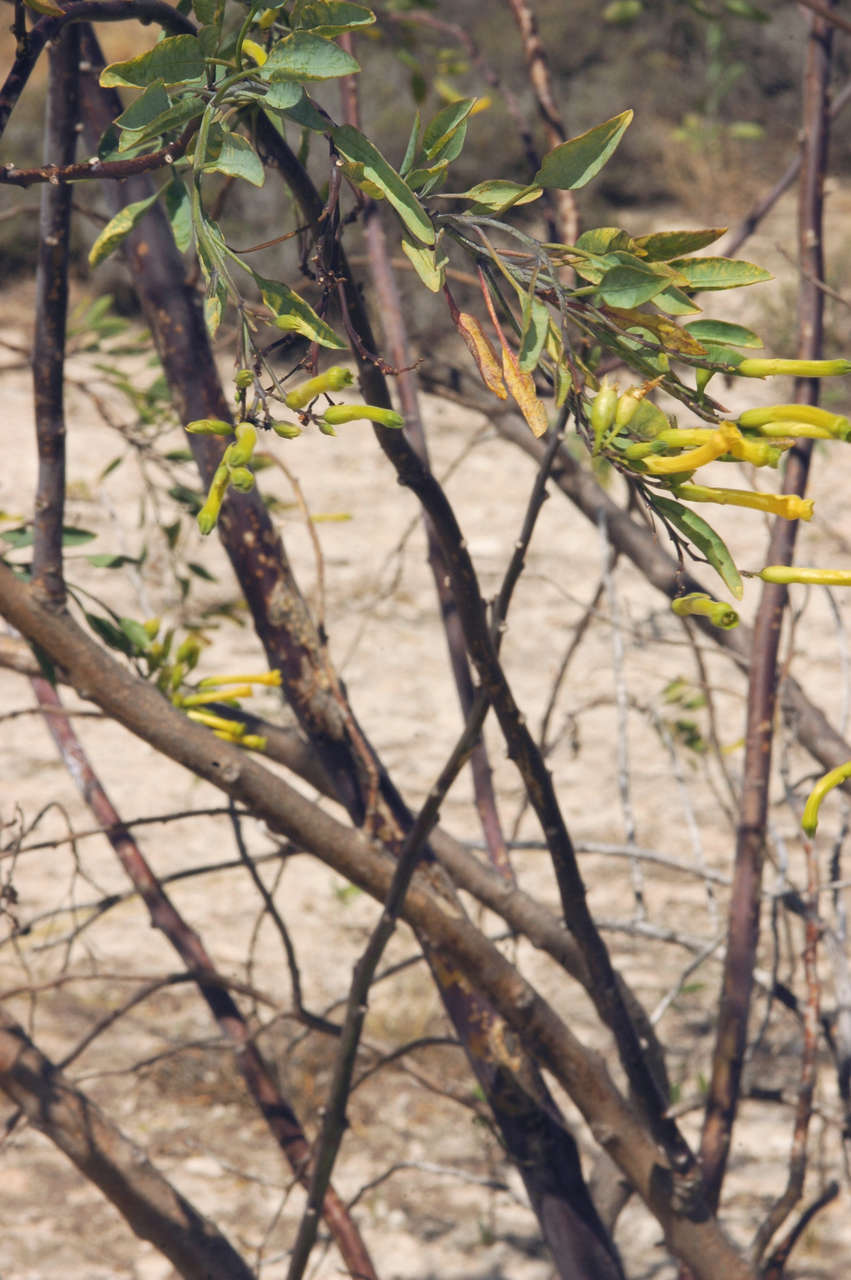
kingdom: Plantae
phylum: Tracheophyta
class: Magnoliopsida
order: Solanales
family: Solanaceae
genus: Nicotiana
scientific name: Nicotiana glauca
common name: Tree tobacco
